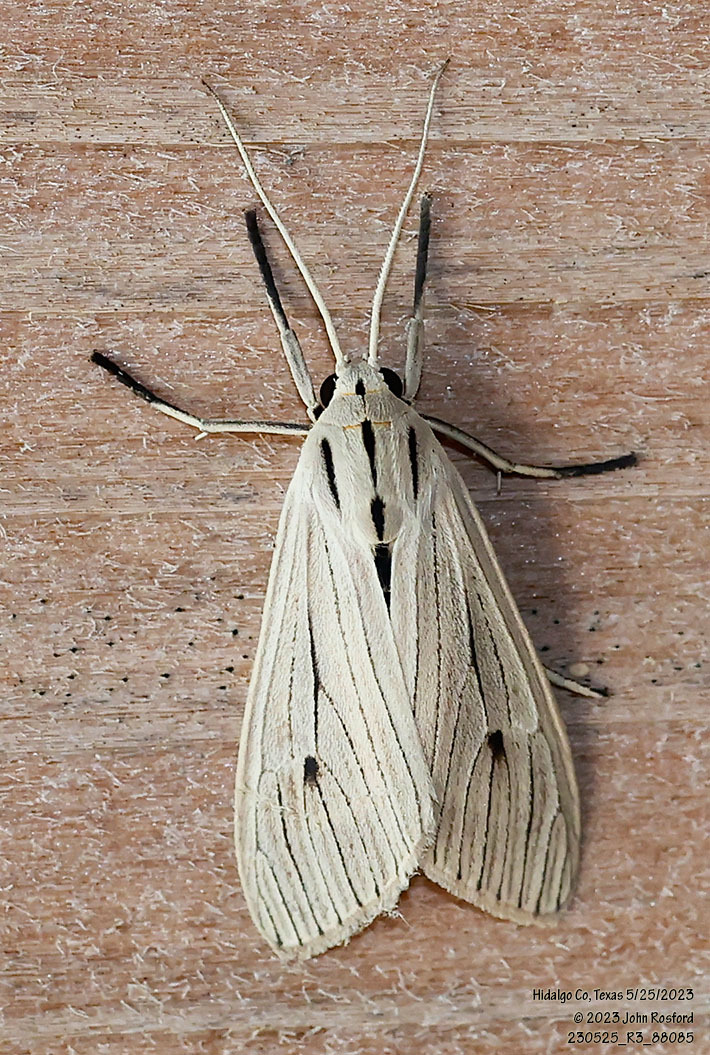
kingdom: Animalia
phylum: Arthropoda
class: Insecta
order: Lepidoptera
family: Erebidae
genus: Arctagyrta
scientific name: Arctagyrta Agaraea semivitrea
